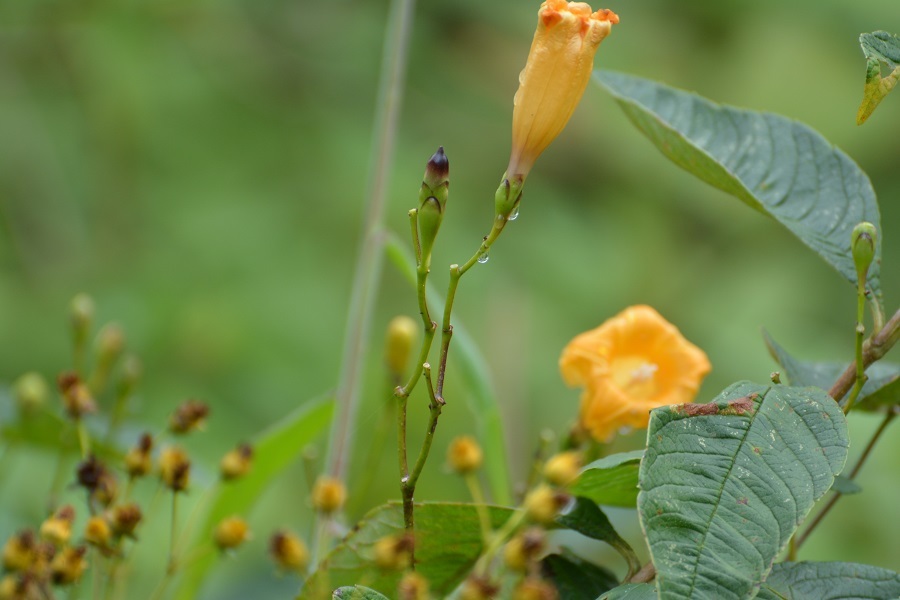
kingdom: Plantae
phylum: Tracheophyta
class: Magnoliopsida
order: Solanales
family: Convolvulaceae
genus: Ipomoea
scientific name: Ipomoea aurantiaca
